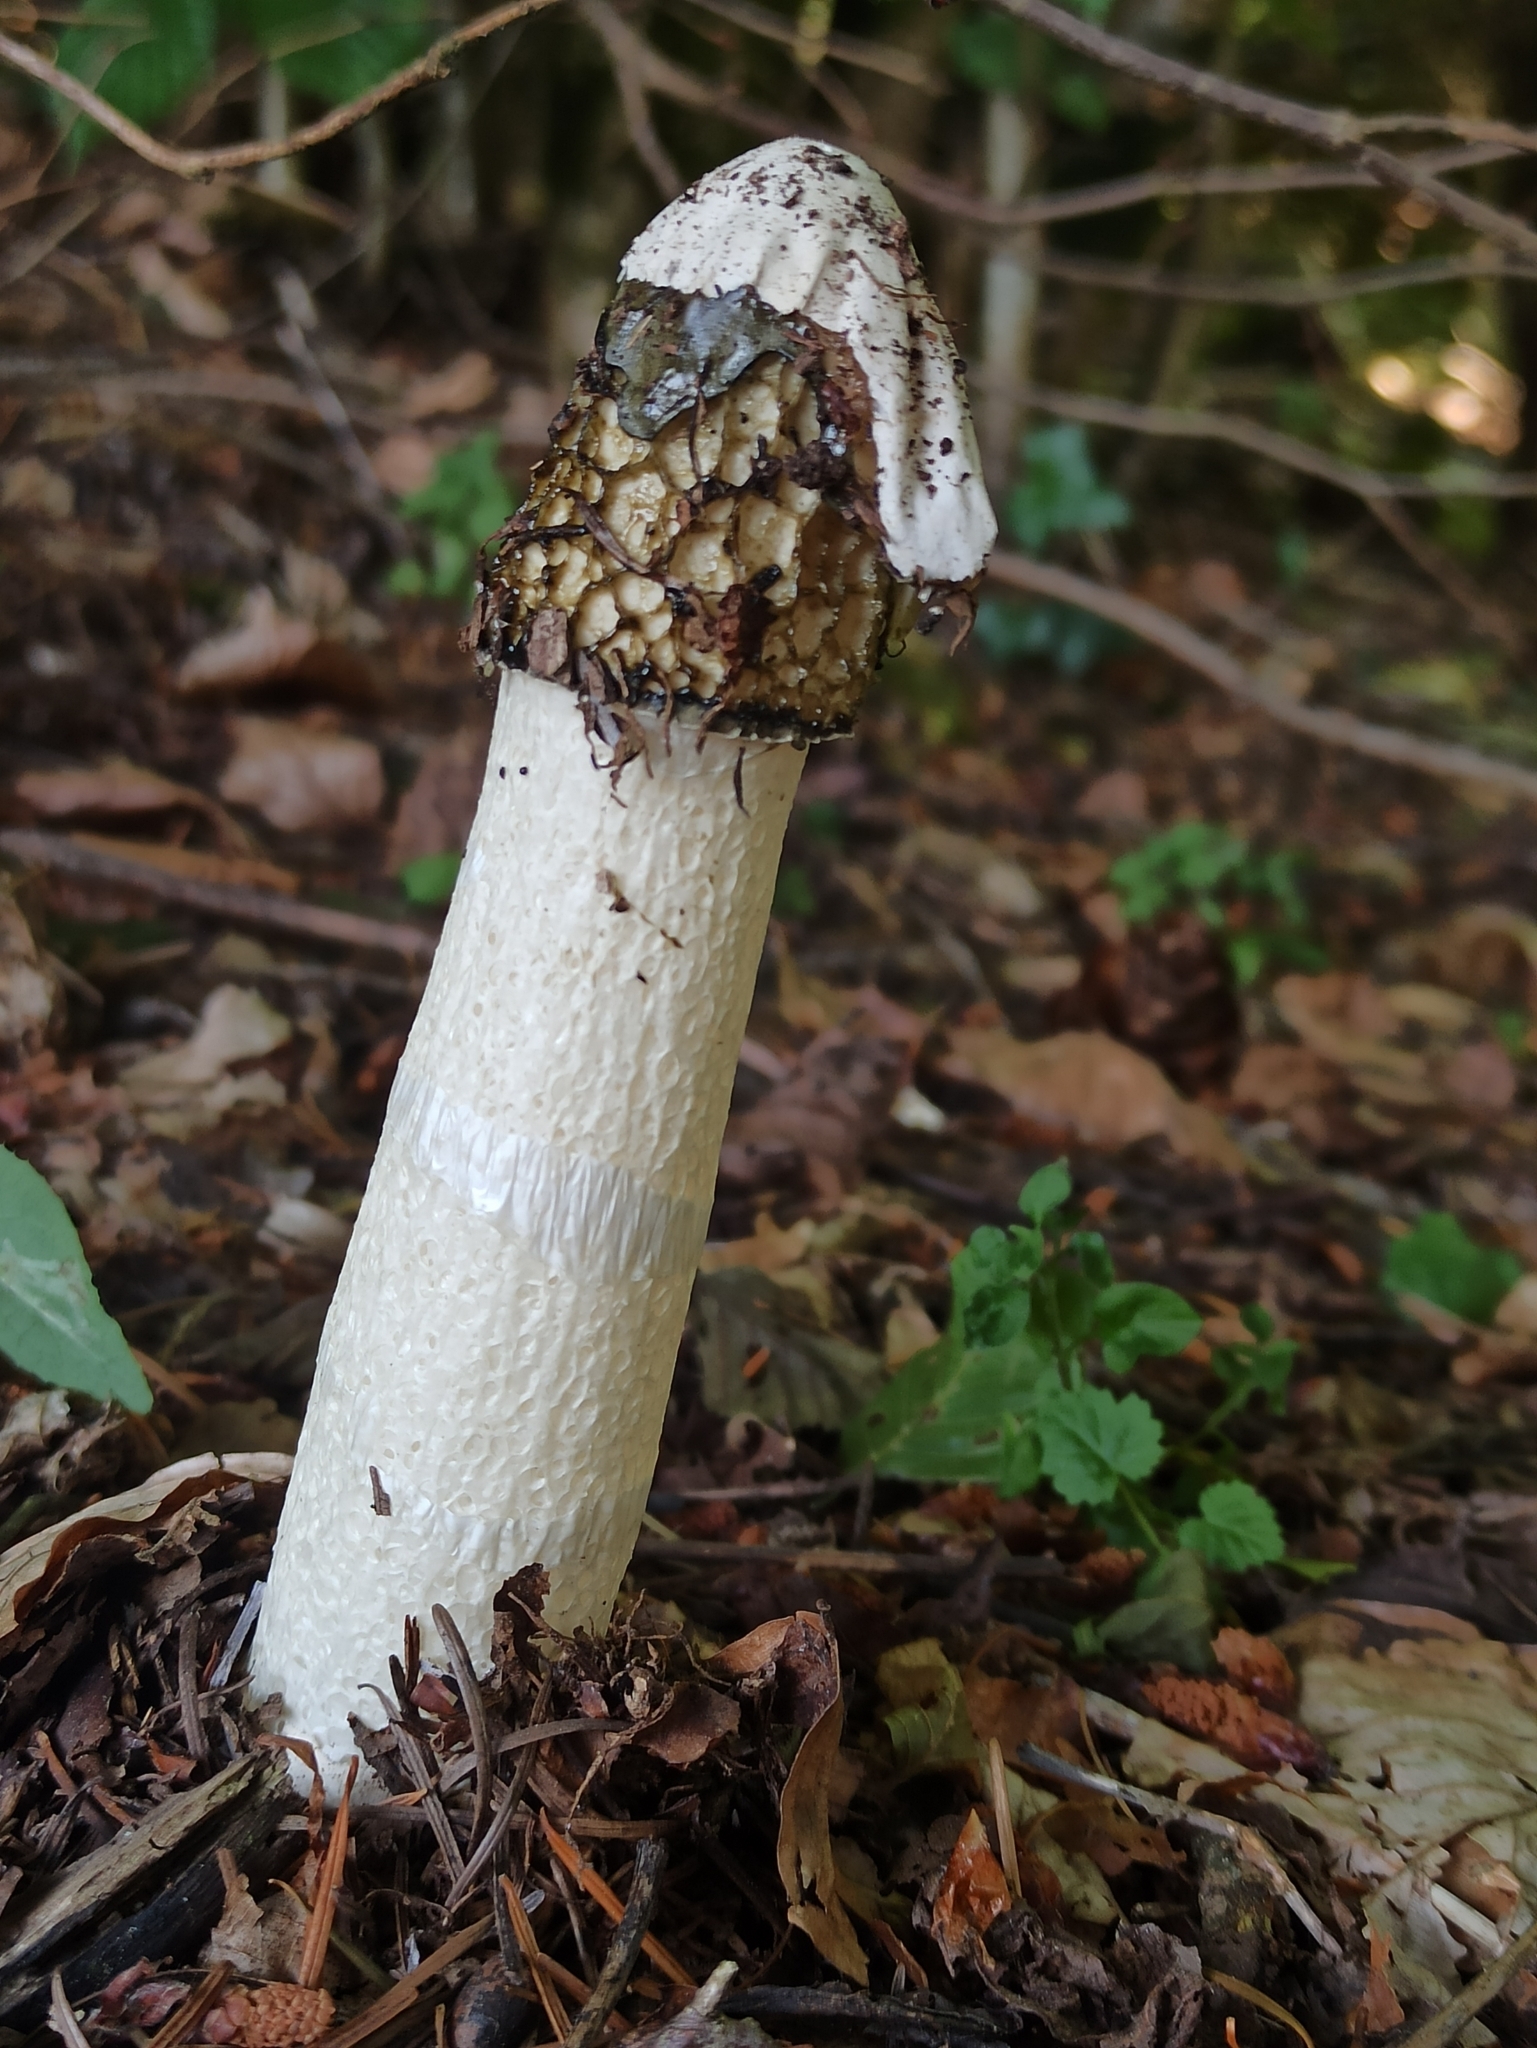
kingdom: Fungi
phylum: Basidiomycota
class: Agaricomycetes
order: Phallales
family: Phallaceae
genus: Phallus
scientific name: Phallus impudicus
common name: Common stinkhorn
